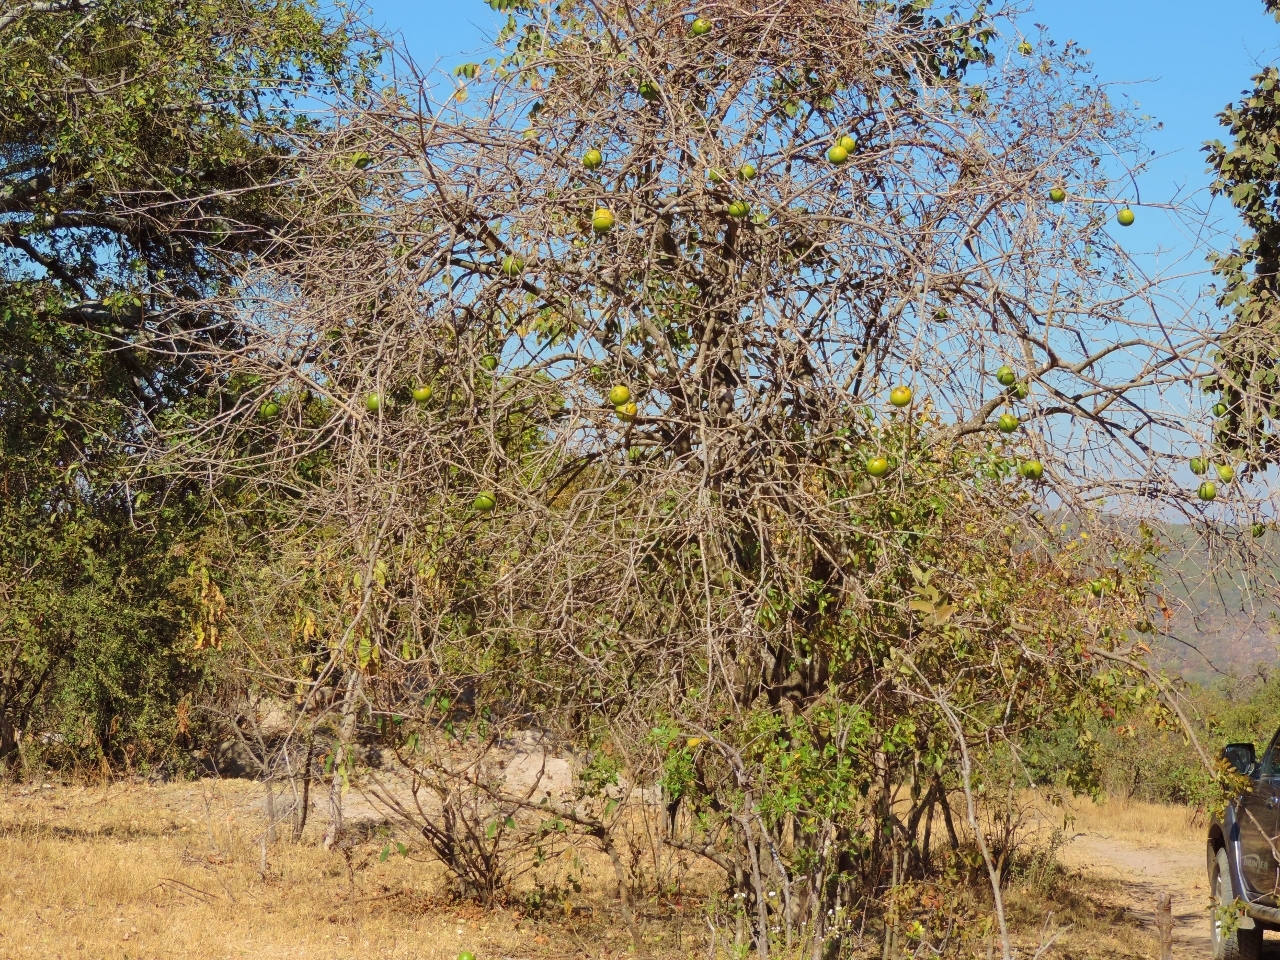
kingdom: Plantae
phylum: Tracheophyta
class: Magnoliopsida
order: Gentianales
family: Loganiaceae
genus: Strychnos
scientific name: Strychnos spinosa
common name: Natal orange
